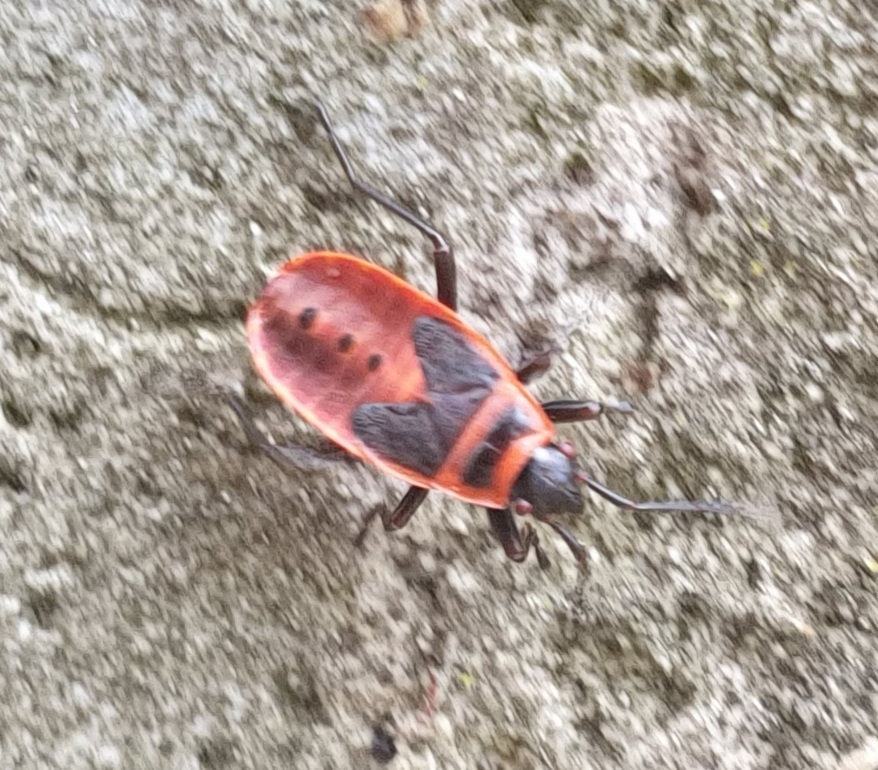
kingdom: Animalia
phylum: Arthropoda
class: Insecta
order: Hemiptera
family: Pyrrhocoridae
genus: Pyrrhocoris
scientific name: Pyrrhocoris apterus
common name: Firebug
